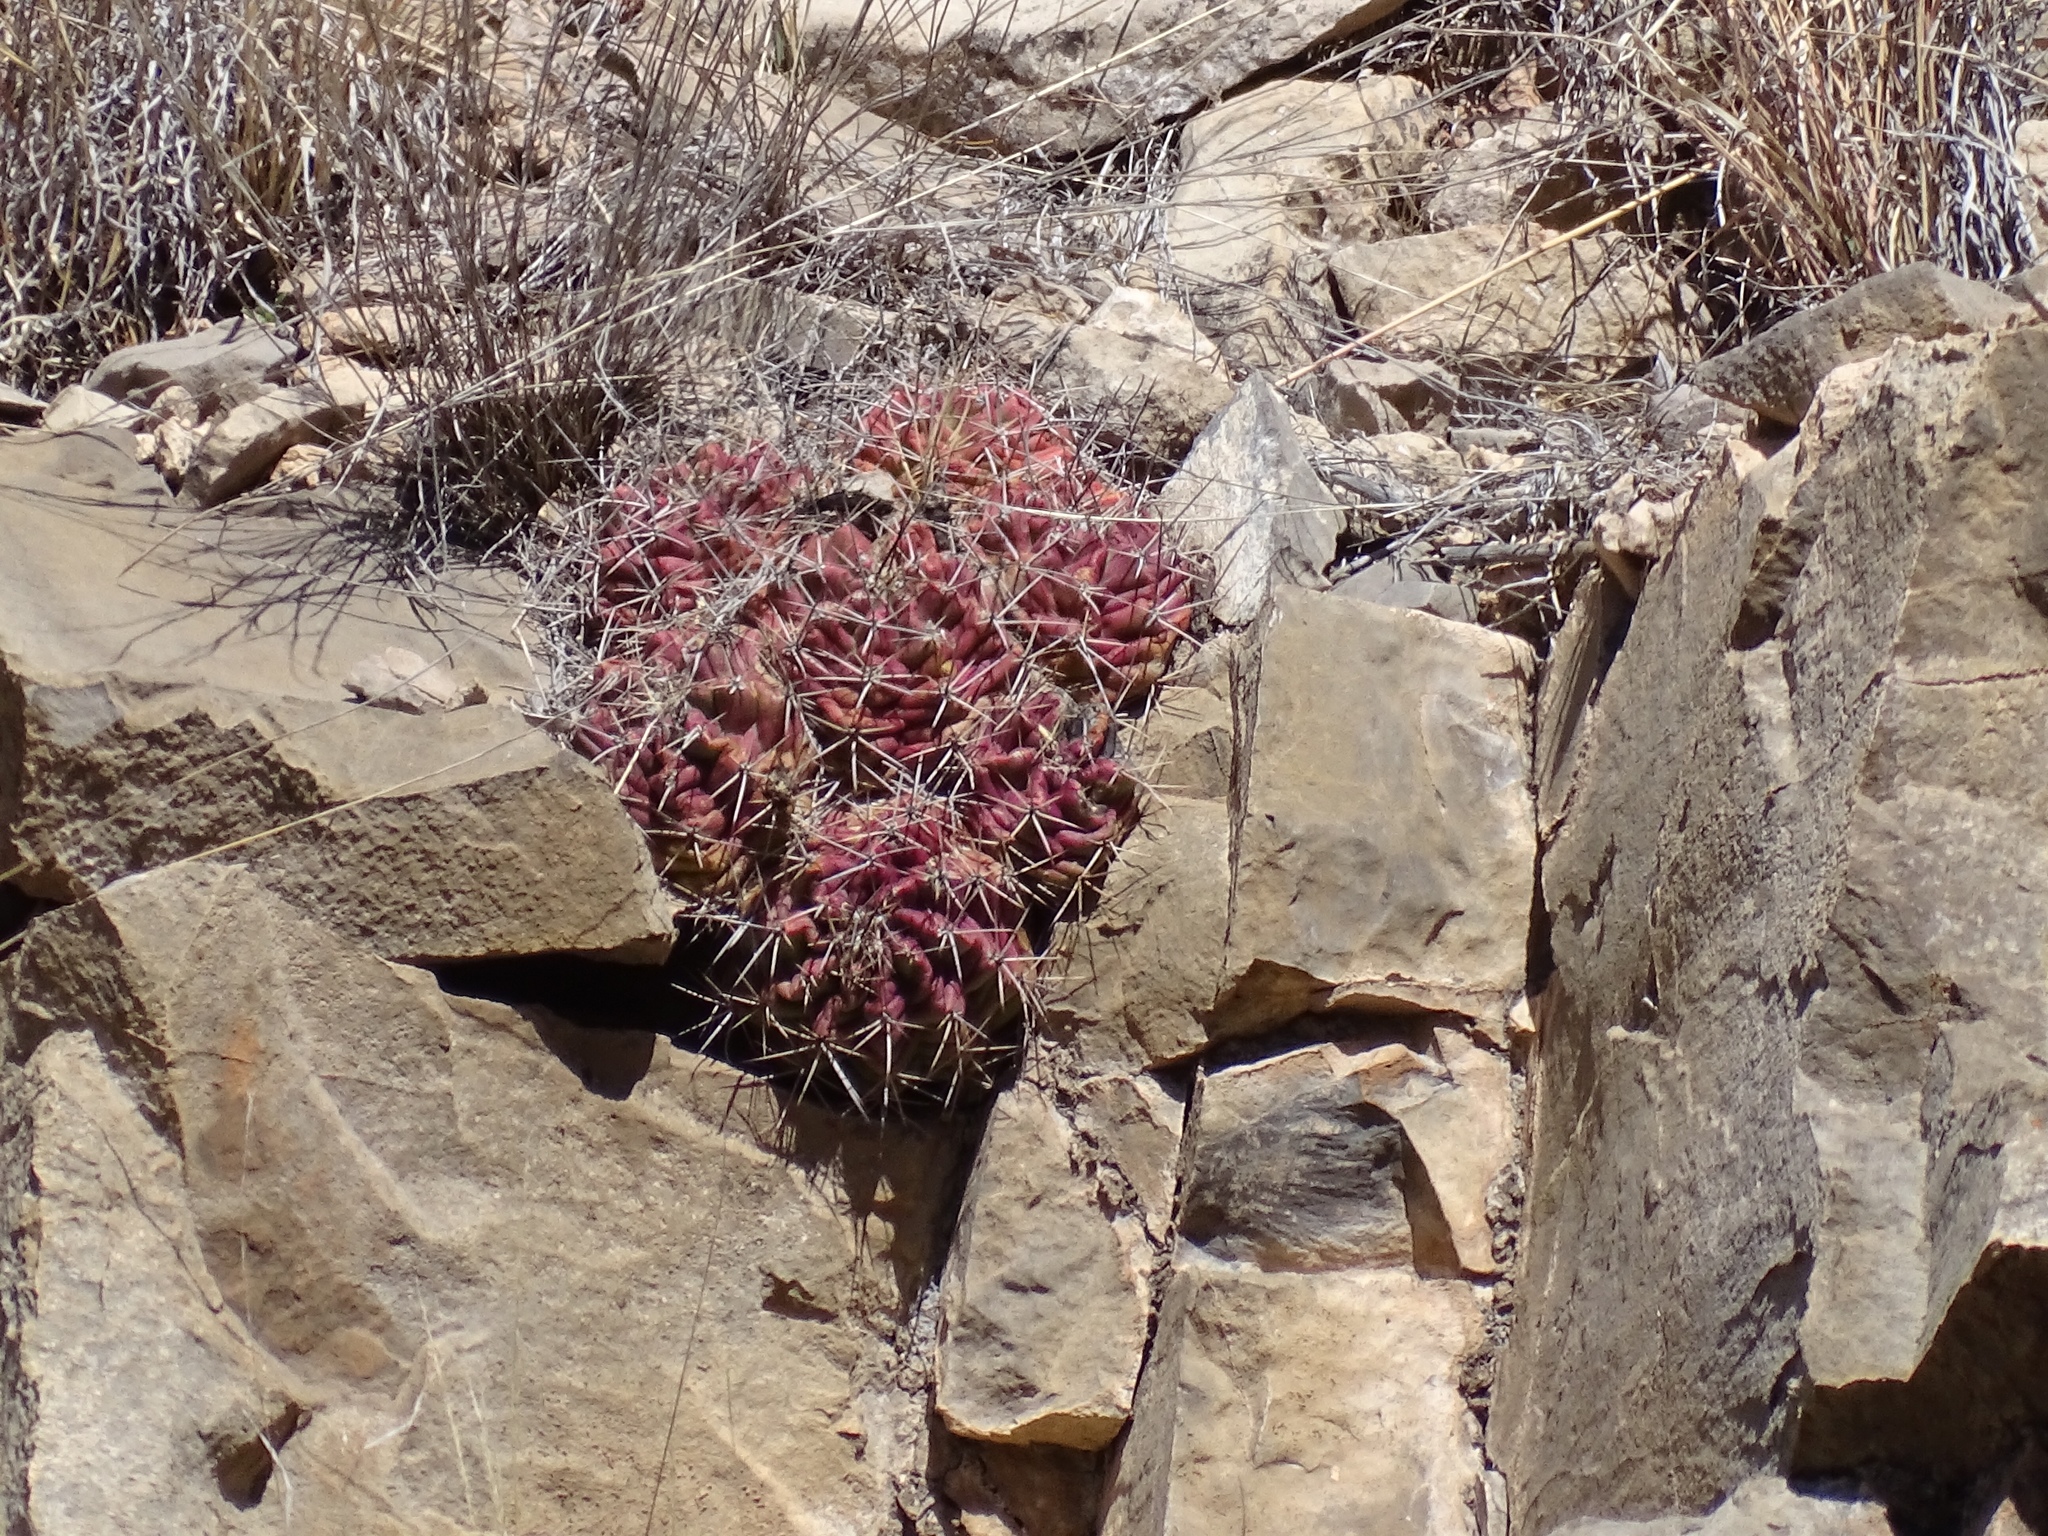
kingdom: Plantae
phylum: Tracheophyta
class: Magnoliopsida
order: Caryophyllales
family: Cactaceae
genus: Echinocereus
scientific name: Echinocereus coccineus
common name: Scarlet hedgehog cactus
